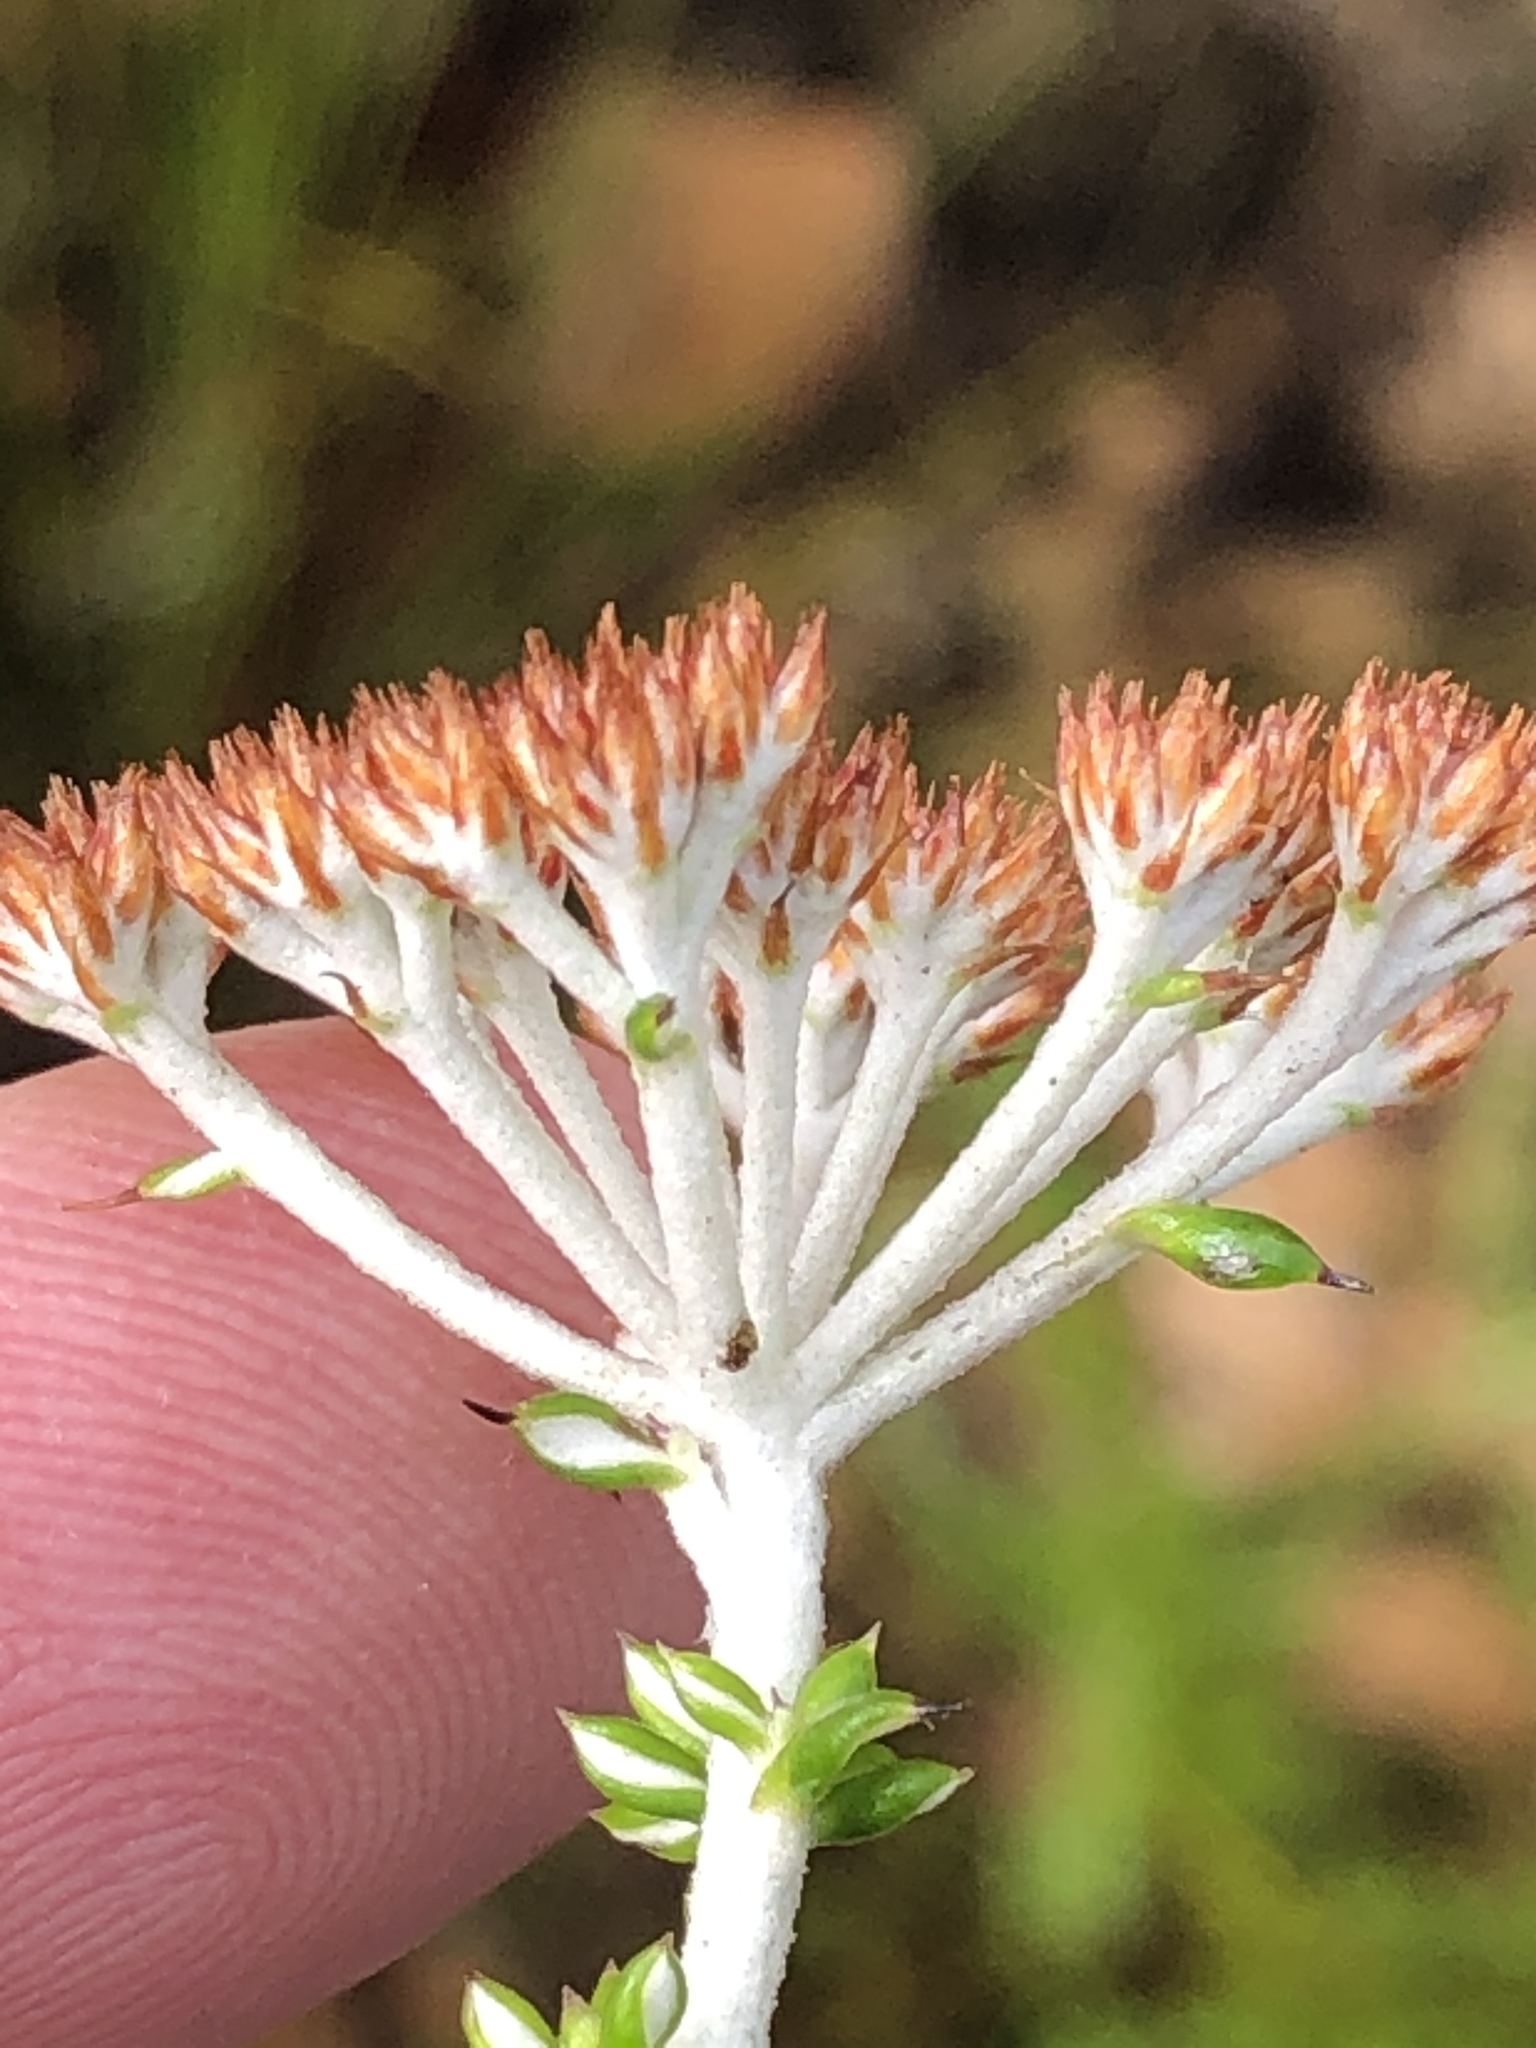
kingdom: Plantae
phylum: Tracheophyta
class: Magnoliopsida
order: Asterales
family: Asteraceae
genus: Metalasia
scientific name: Metalasia densa
